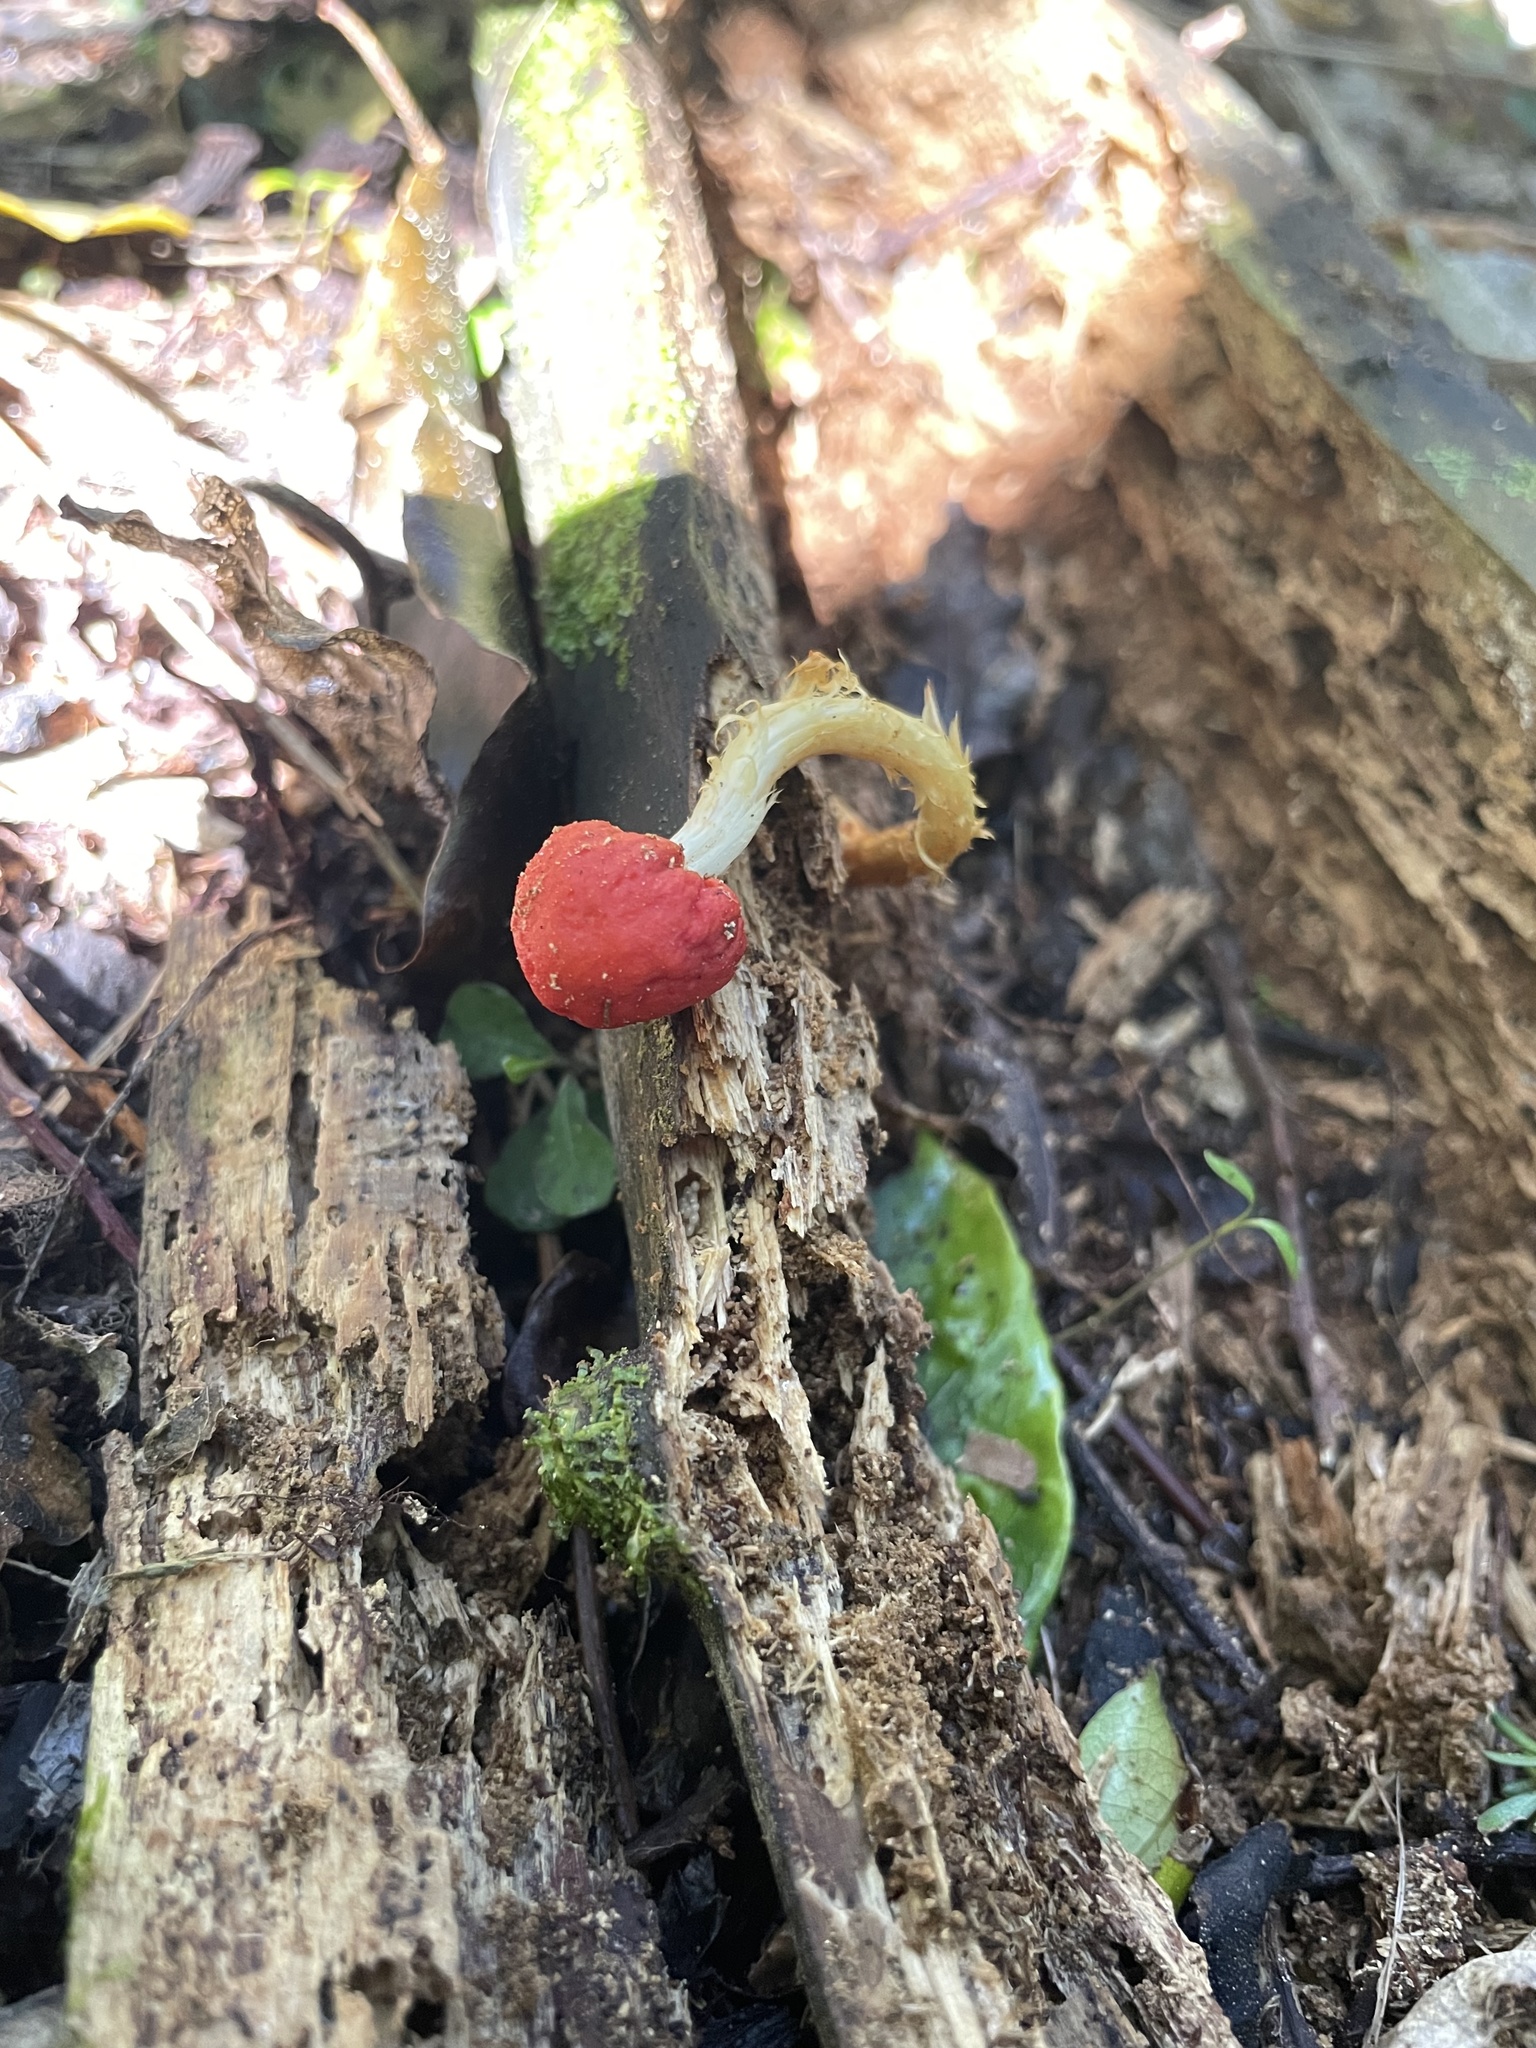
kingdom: Fungi
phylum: Basidiomycota
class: Agaricomycetes
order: Agaricales
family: Strophariaceae
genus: Leratiomyces
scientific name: Leratiomyces erythrocephalus
